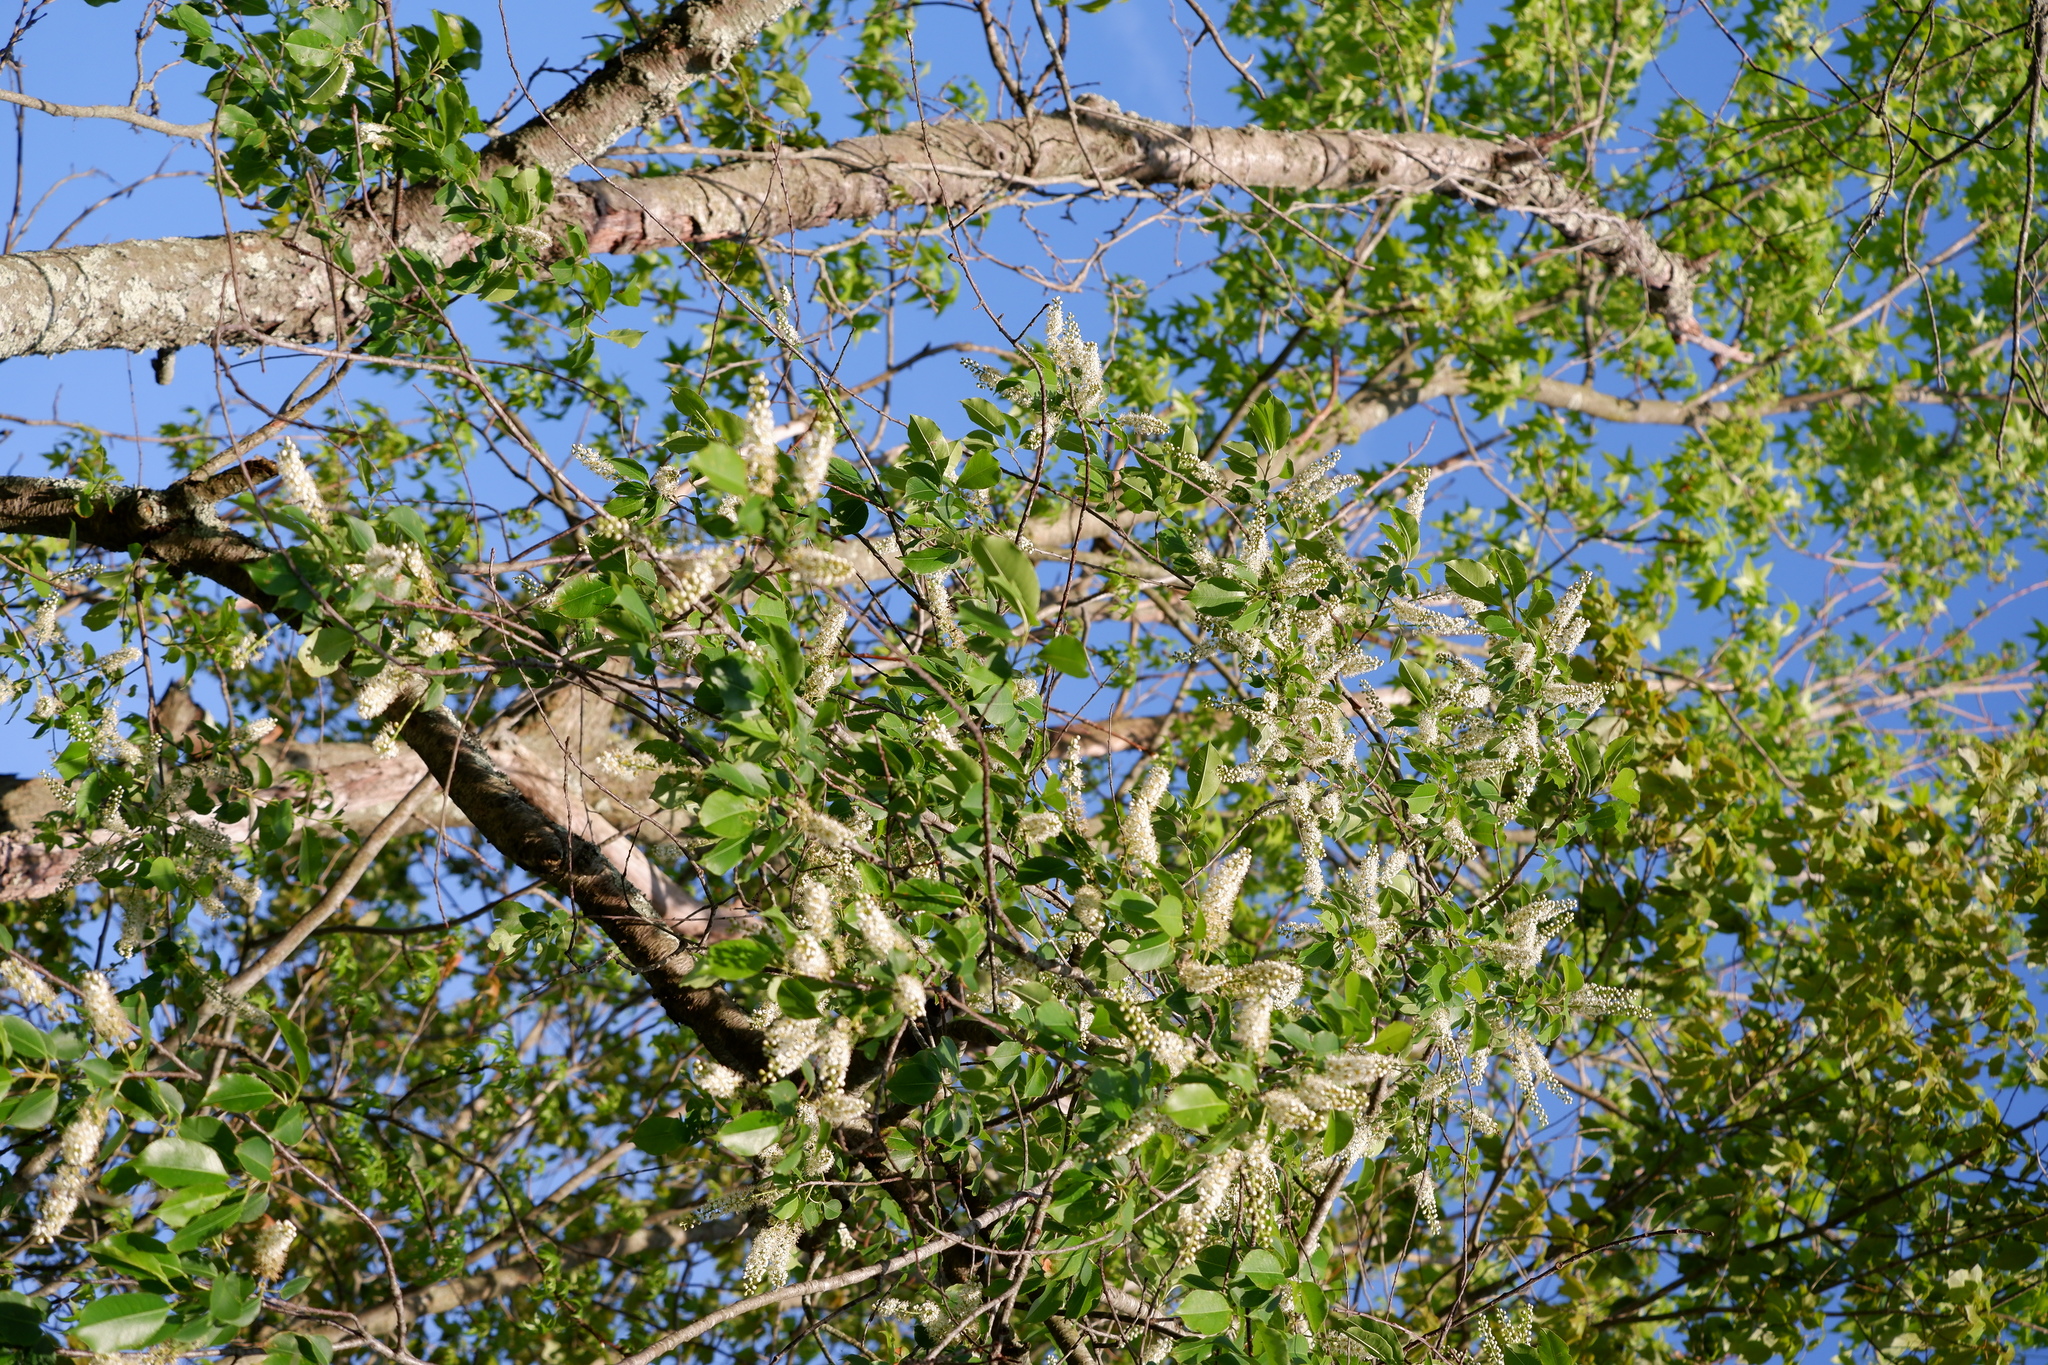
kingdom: Plantae
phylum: Tracheophyta
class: Magnoliopsida
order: Rosales
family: Rosaceae
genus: Prunus
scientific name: Prunus serotina
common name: Black cherry
